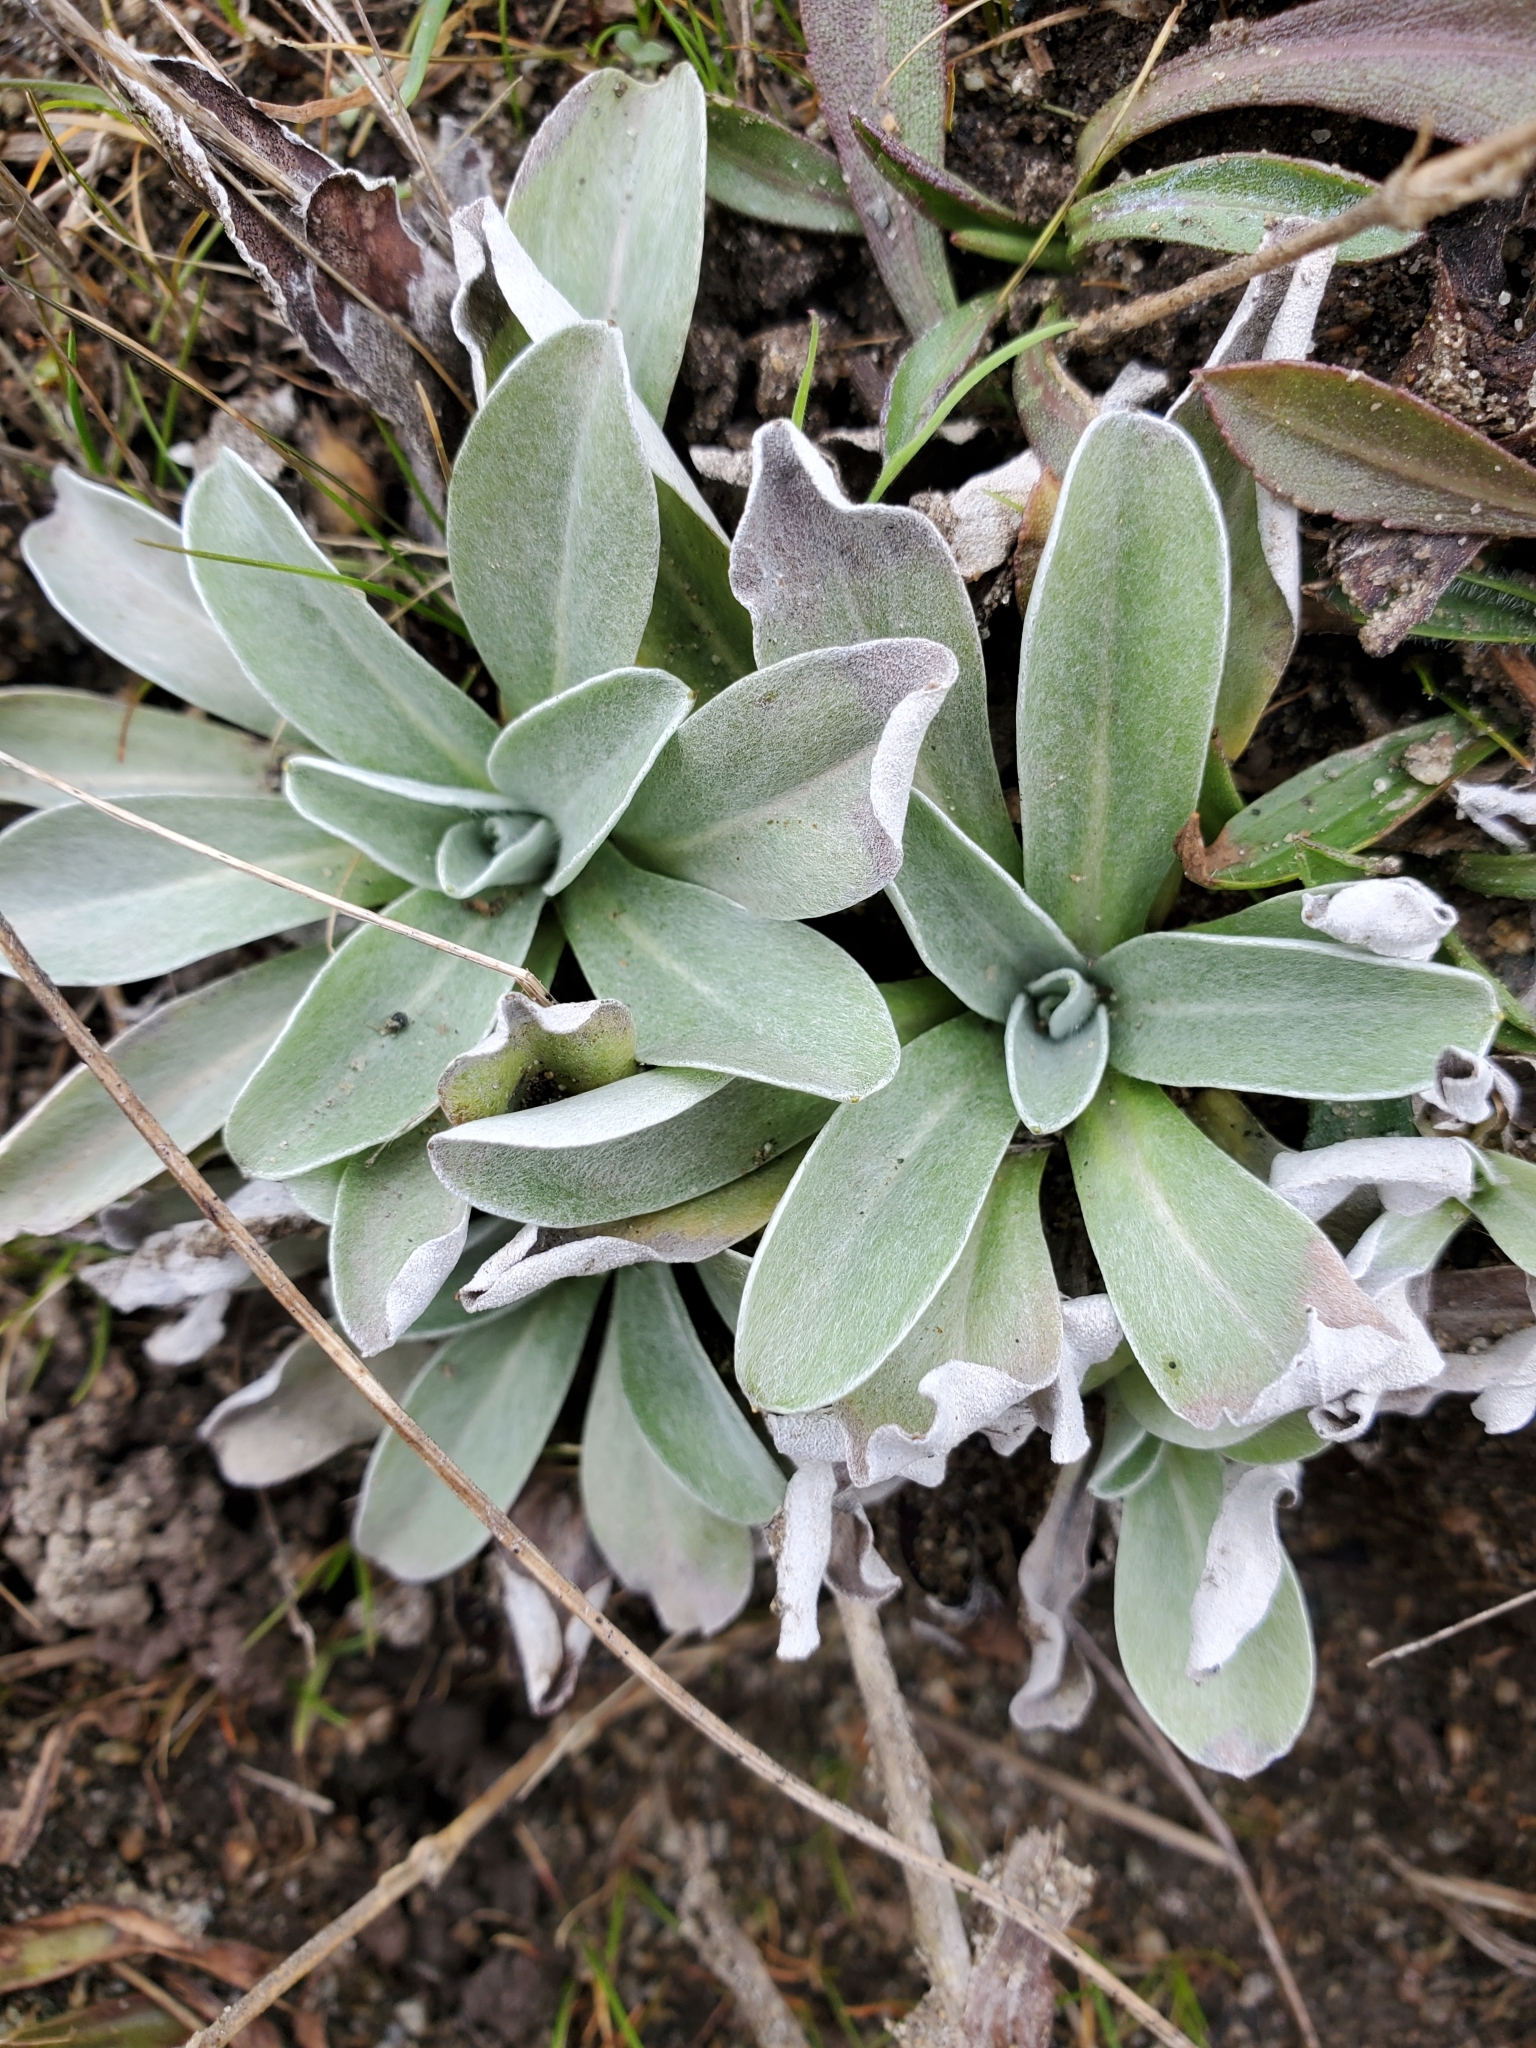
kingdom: Plantae
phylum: Tracheophyta
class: Magnoliopsida
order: Asterales
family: Asteraceae
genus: Gamochaeta
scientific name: Gamochaeta ustulata
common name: Pacific cudweed
